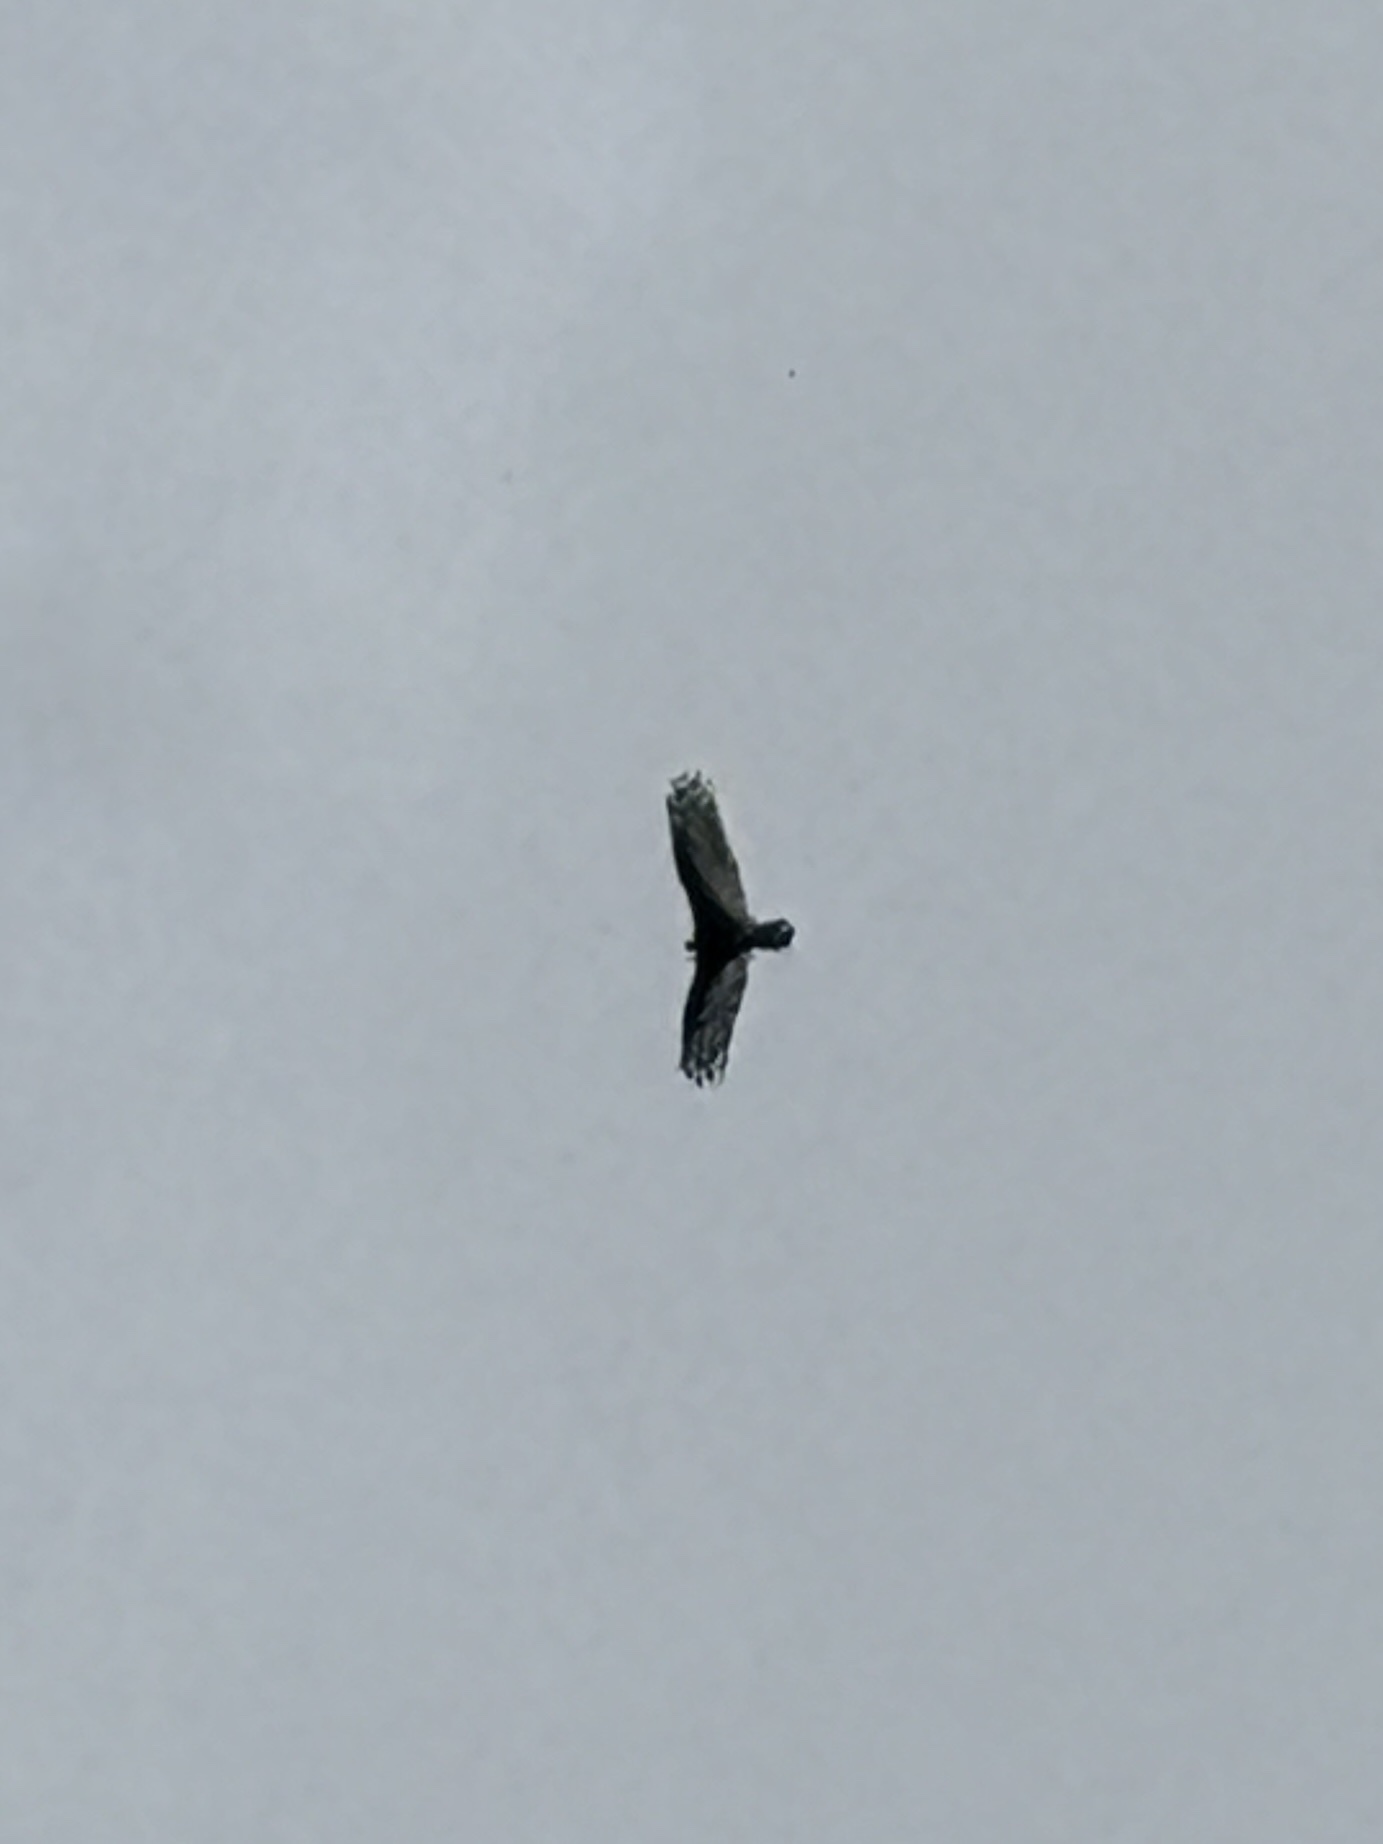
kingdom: Animalia
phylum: Chordata
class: Aves
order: Accipitriformes
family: Cathartidae
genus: Cathartes
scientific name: Cathartes aura
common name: Turkey vulture
